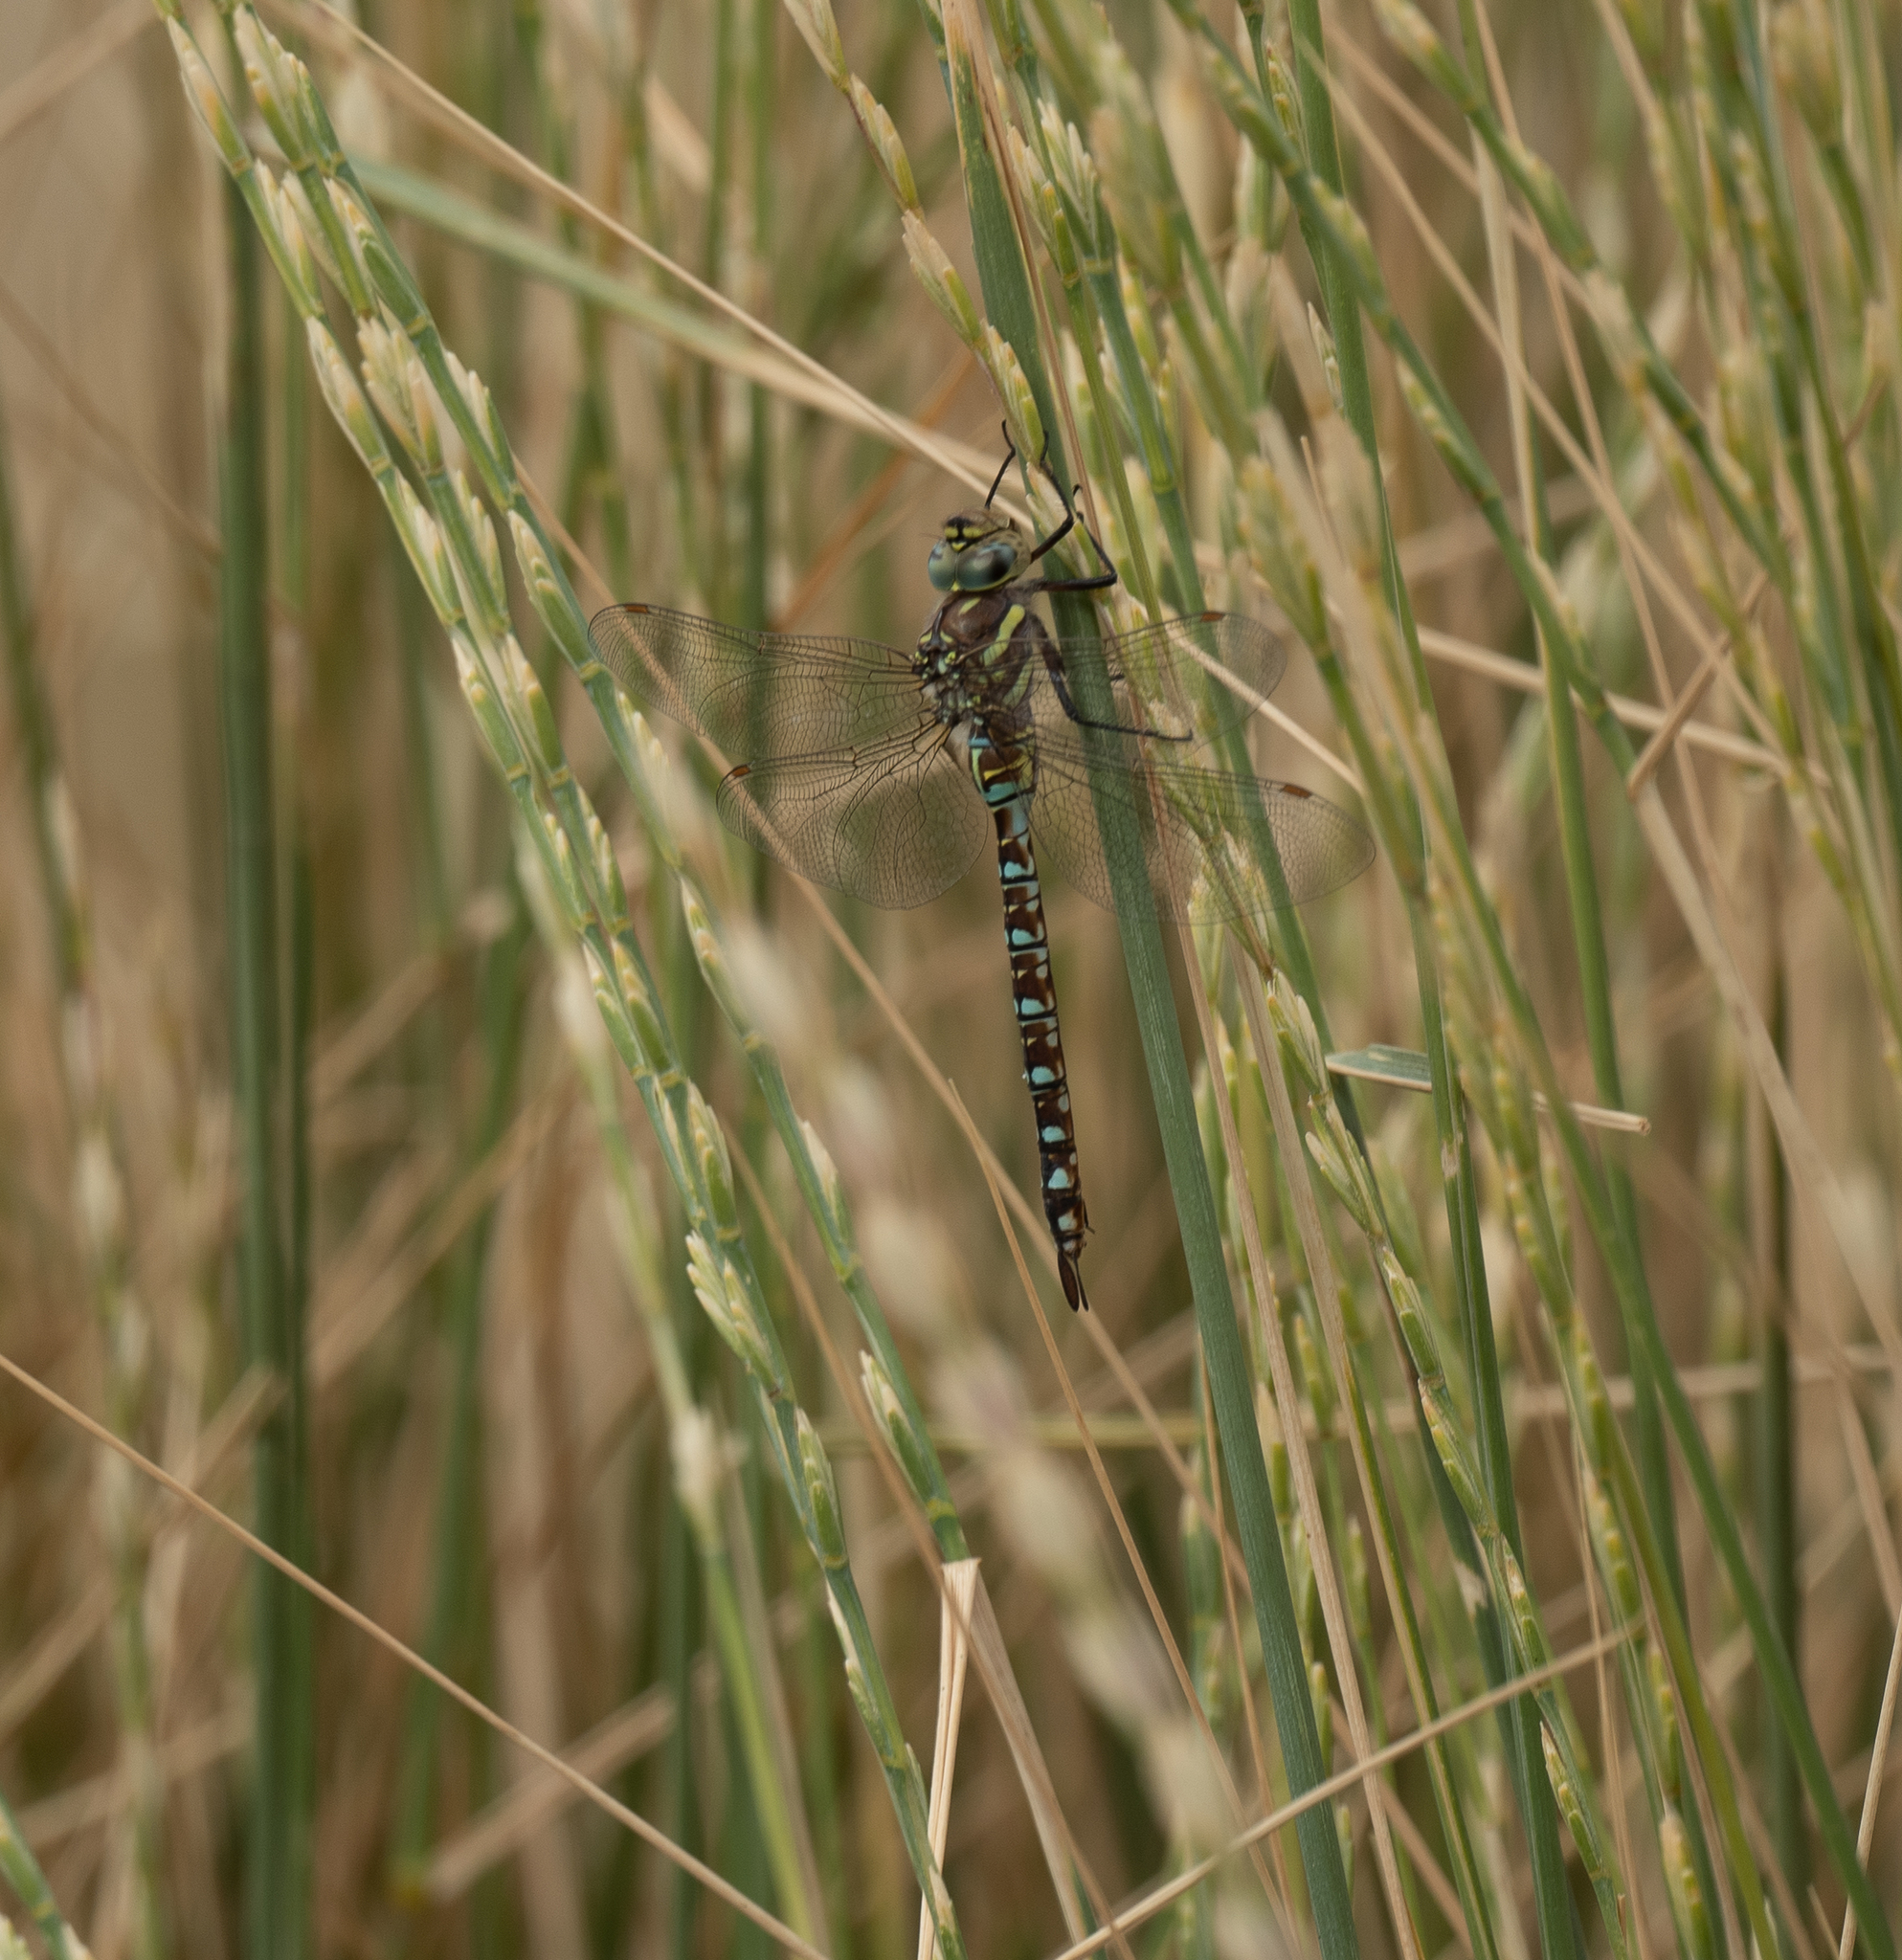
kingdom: Animalia
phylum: Arthropoda
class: Insecta
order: Odonata
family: Aeshnidae
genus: Aeshna
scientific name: Aeshna palmata
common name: Paddle-tailed darner
